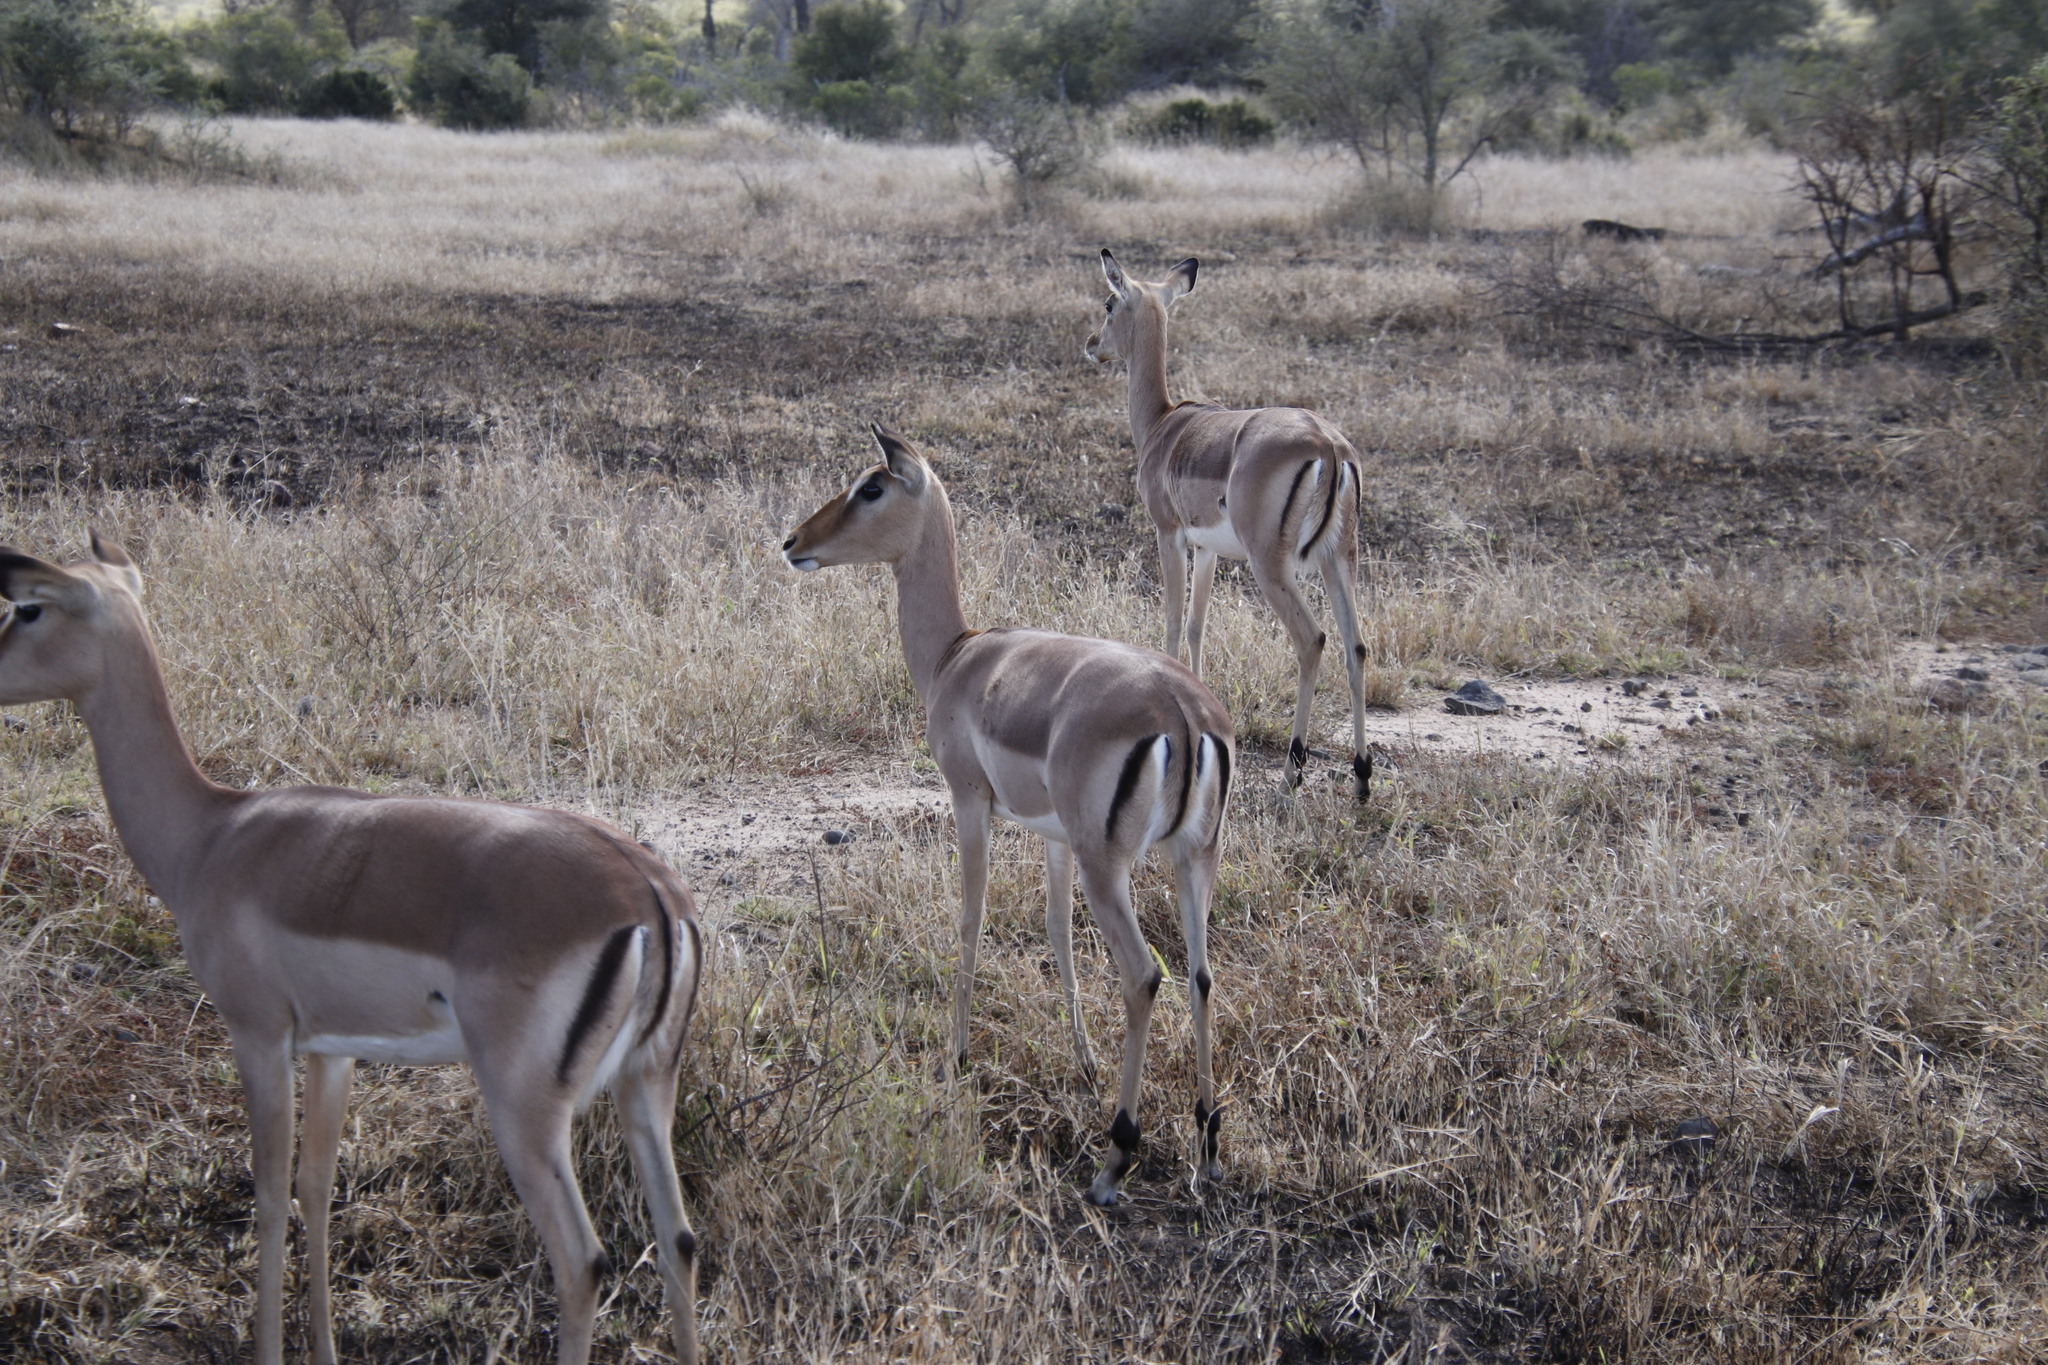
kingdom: Animalia
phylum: Chordata
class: Mammalia
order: Artiodactyla
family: Bovidae
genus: Aepyceros
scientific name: Aepyceros melampus
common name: Impala
